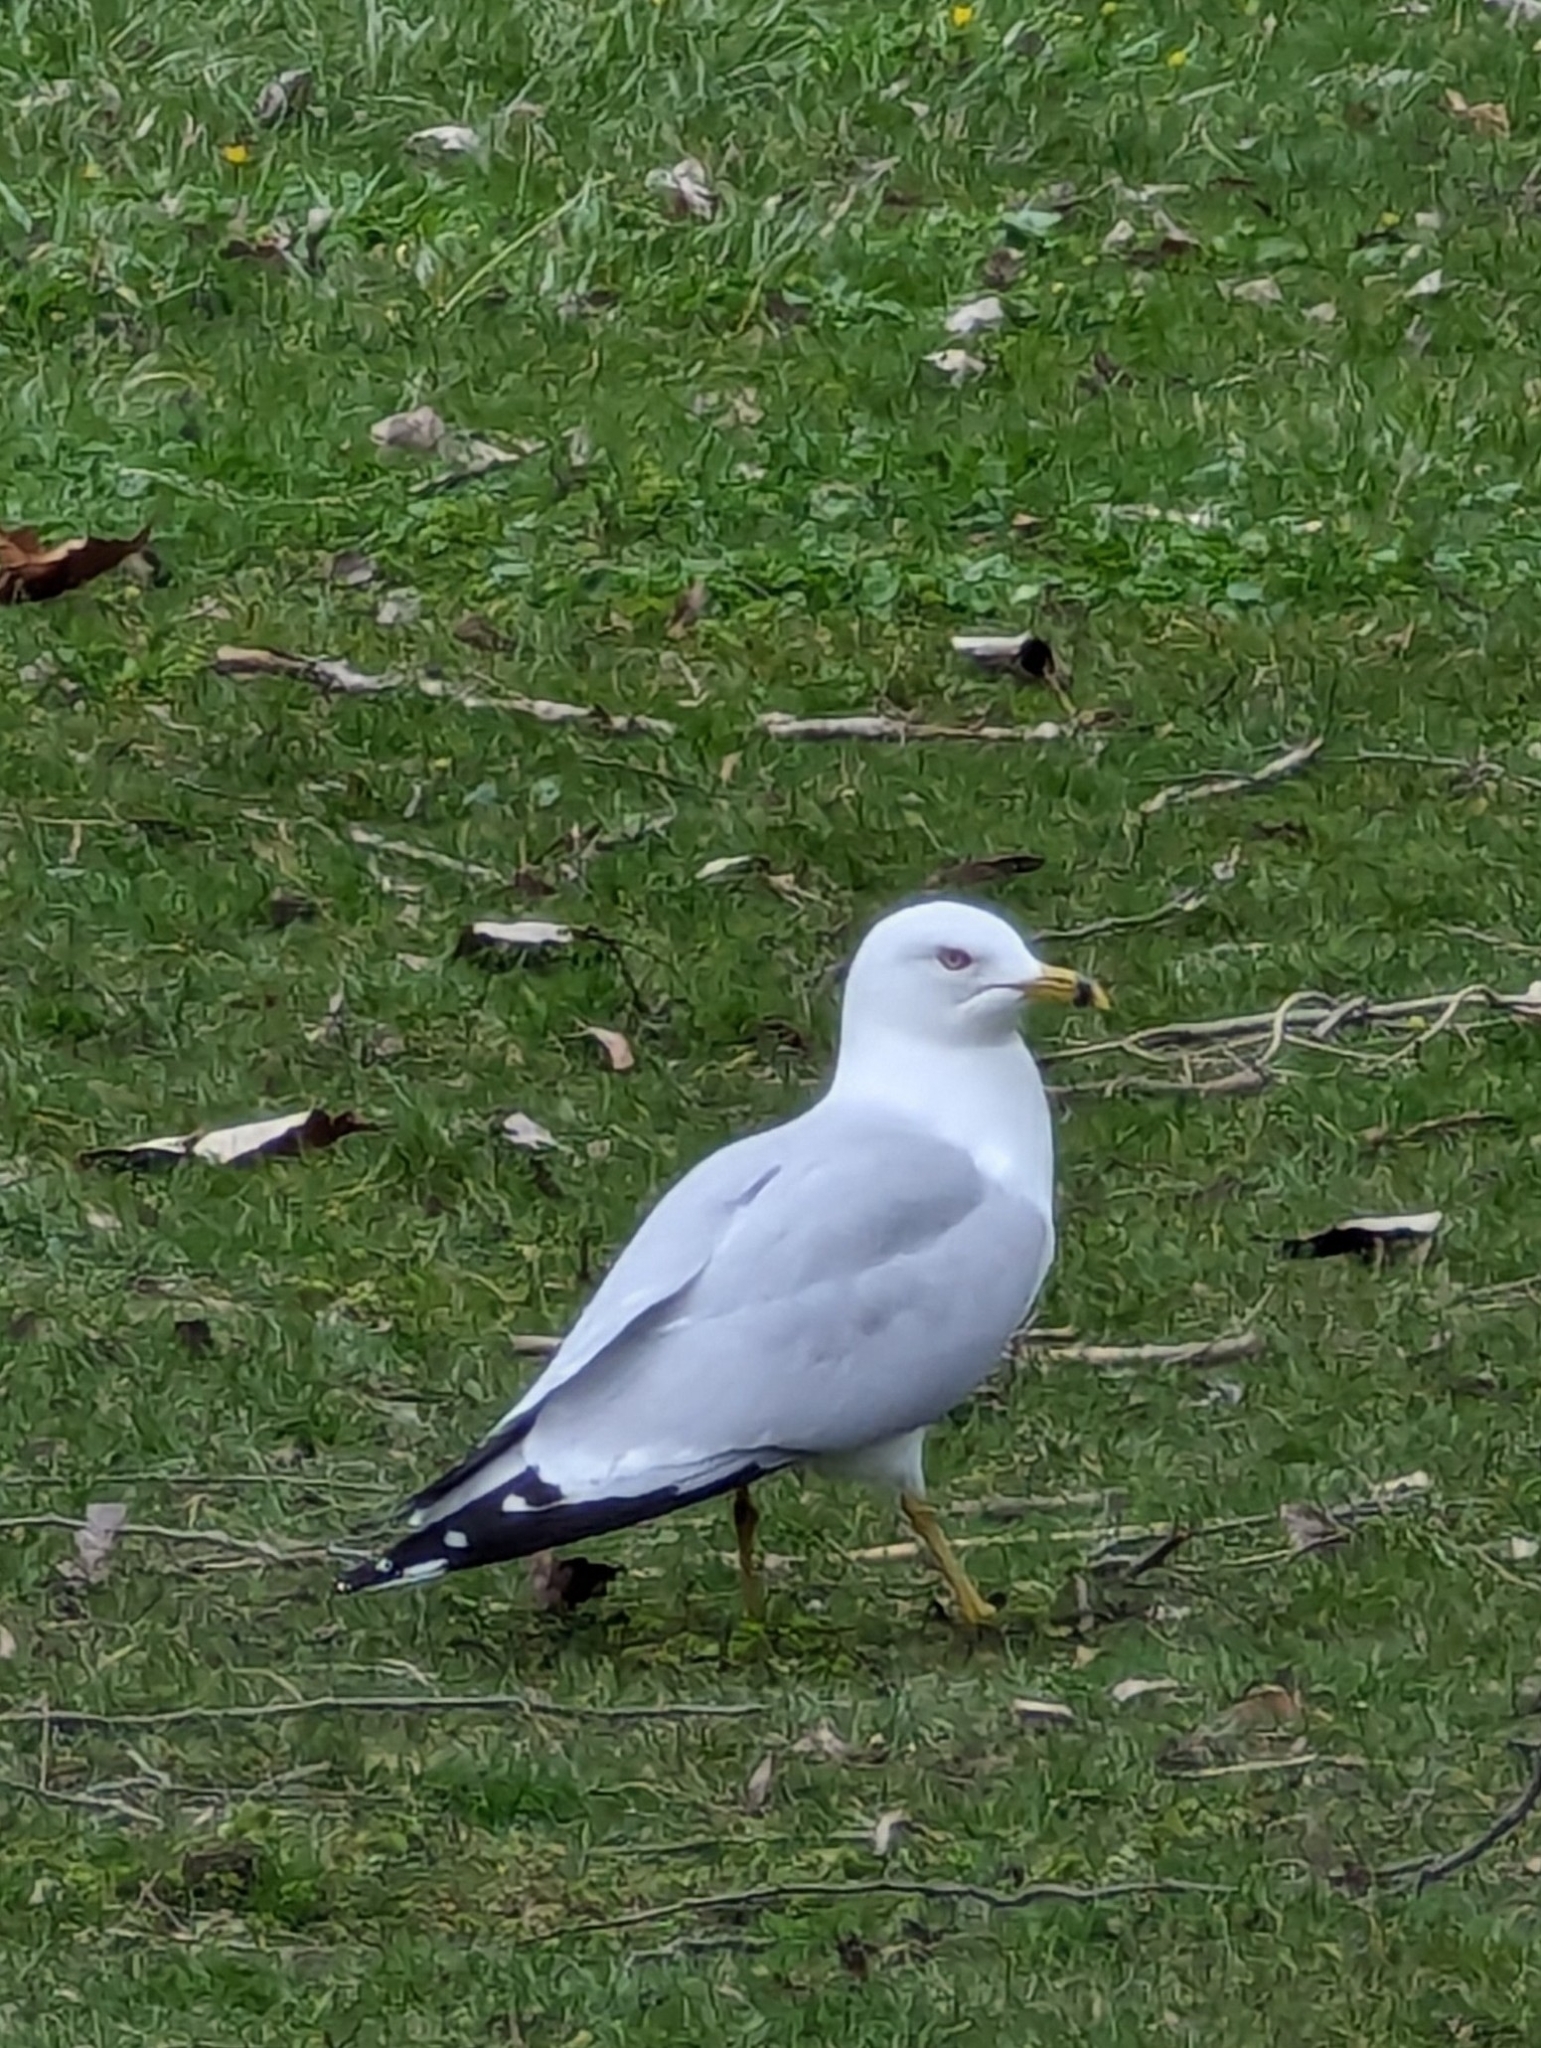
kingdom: Animalia
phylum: Chordata
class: Aves
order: Charadriiformes
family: Laridae
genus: Larus
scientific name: Larus delawarensis
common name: Ring-billed gull
